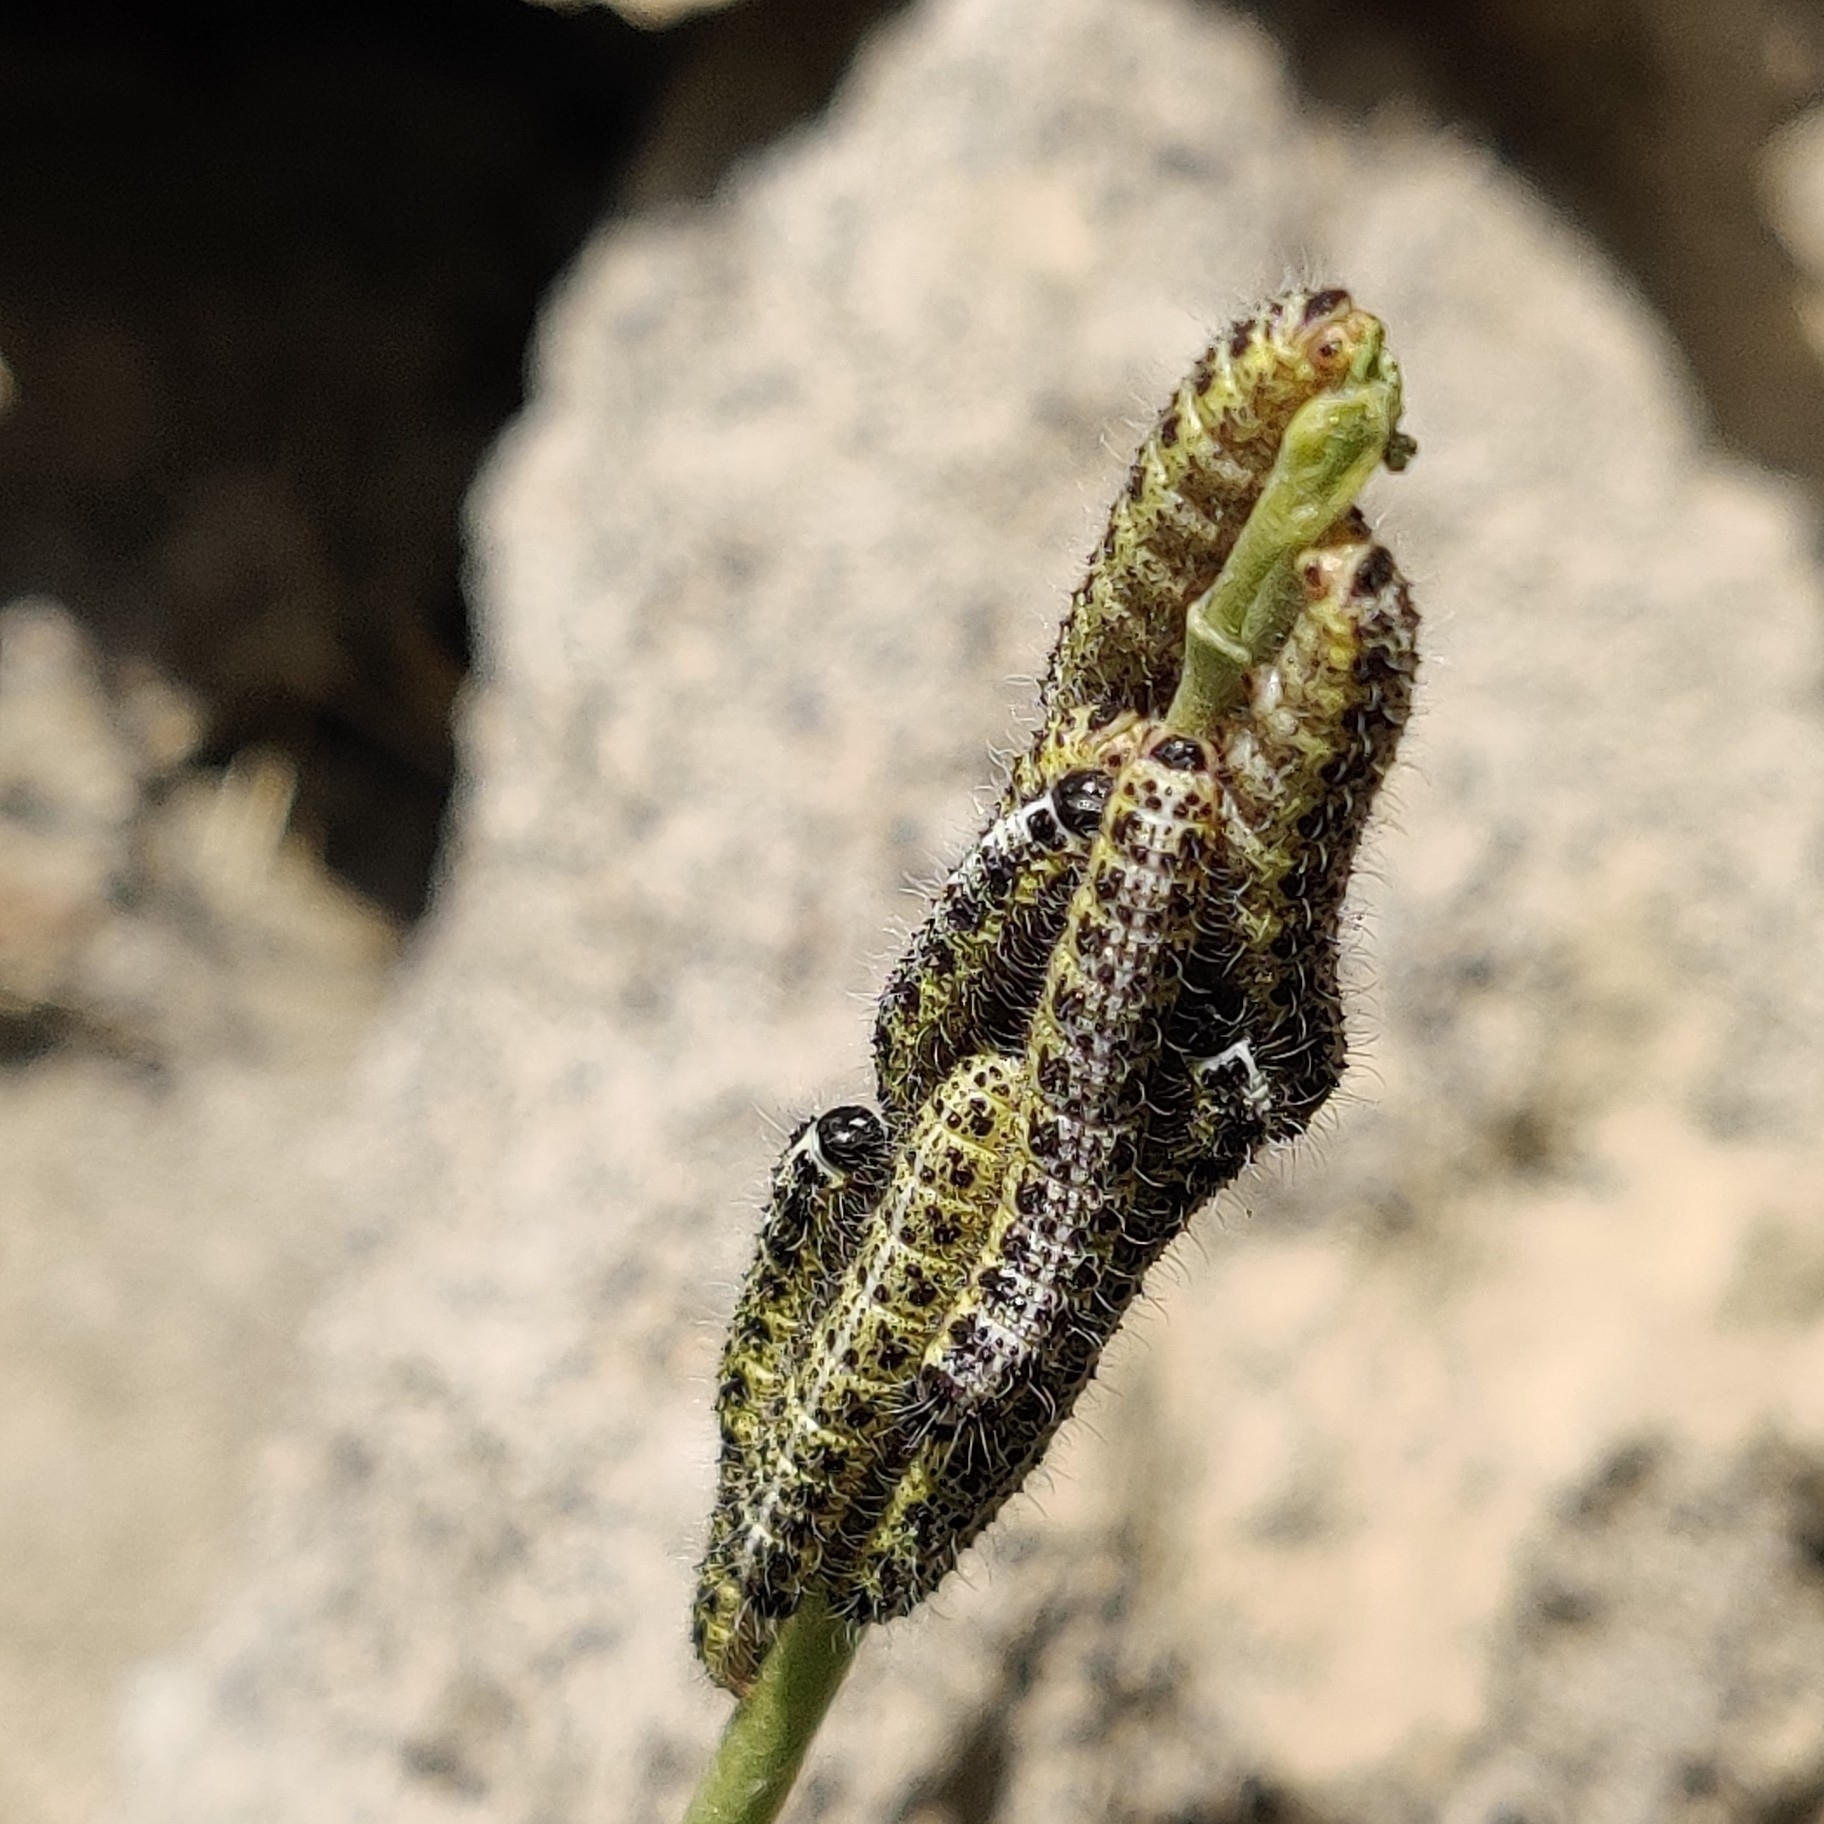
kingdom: Animalia
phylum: Arthropoda
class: Insecta
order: Lepidoptera
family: Pieridae
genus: Pieris
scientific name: Pieris brassicae
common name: Large white
